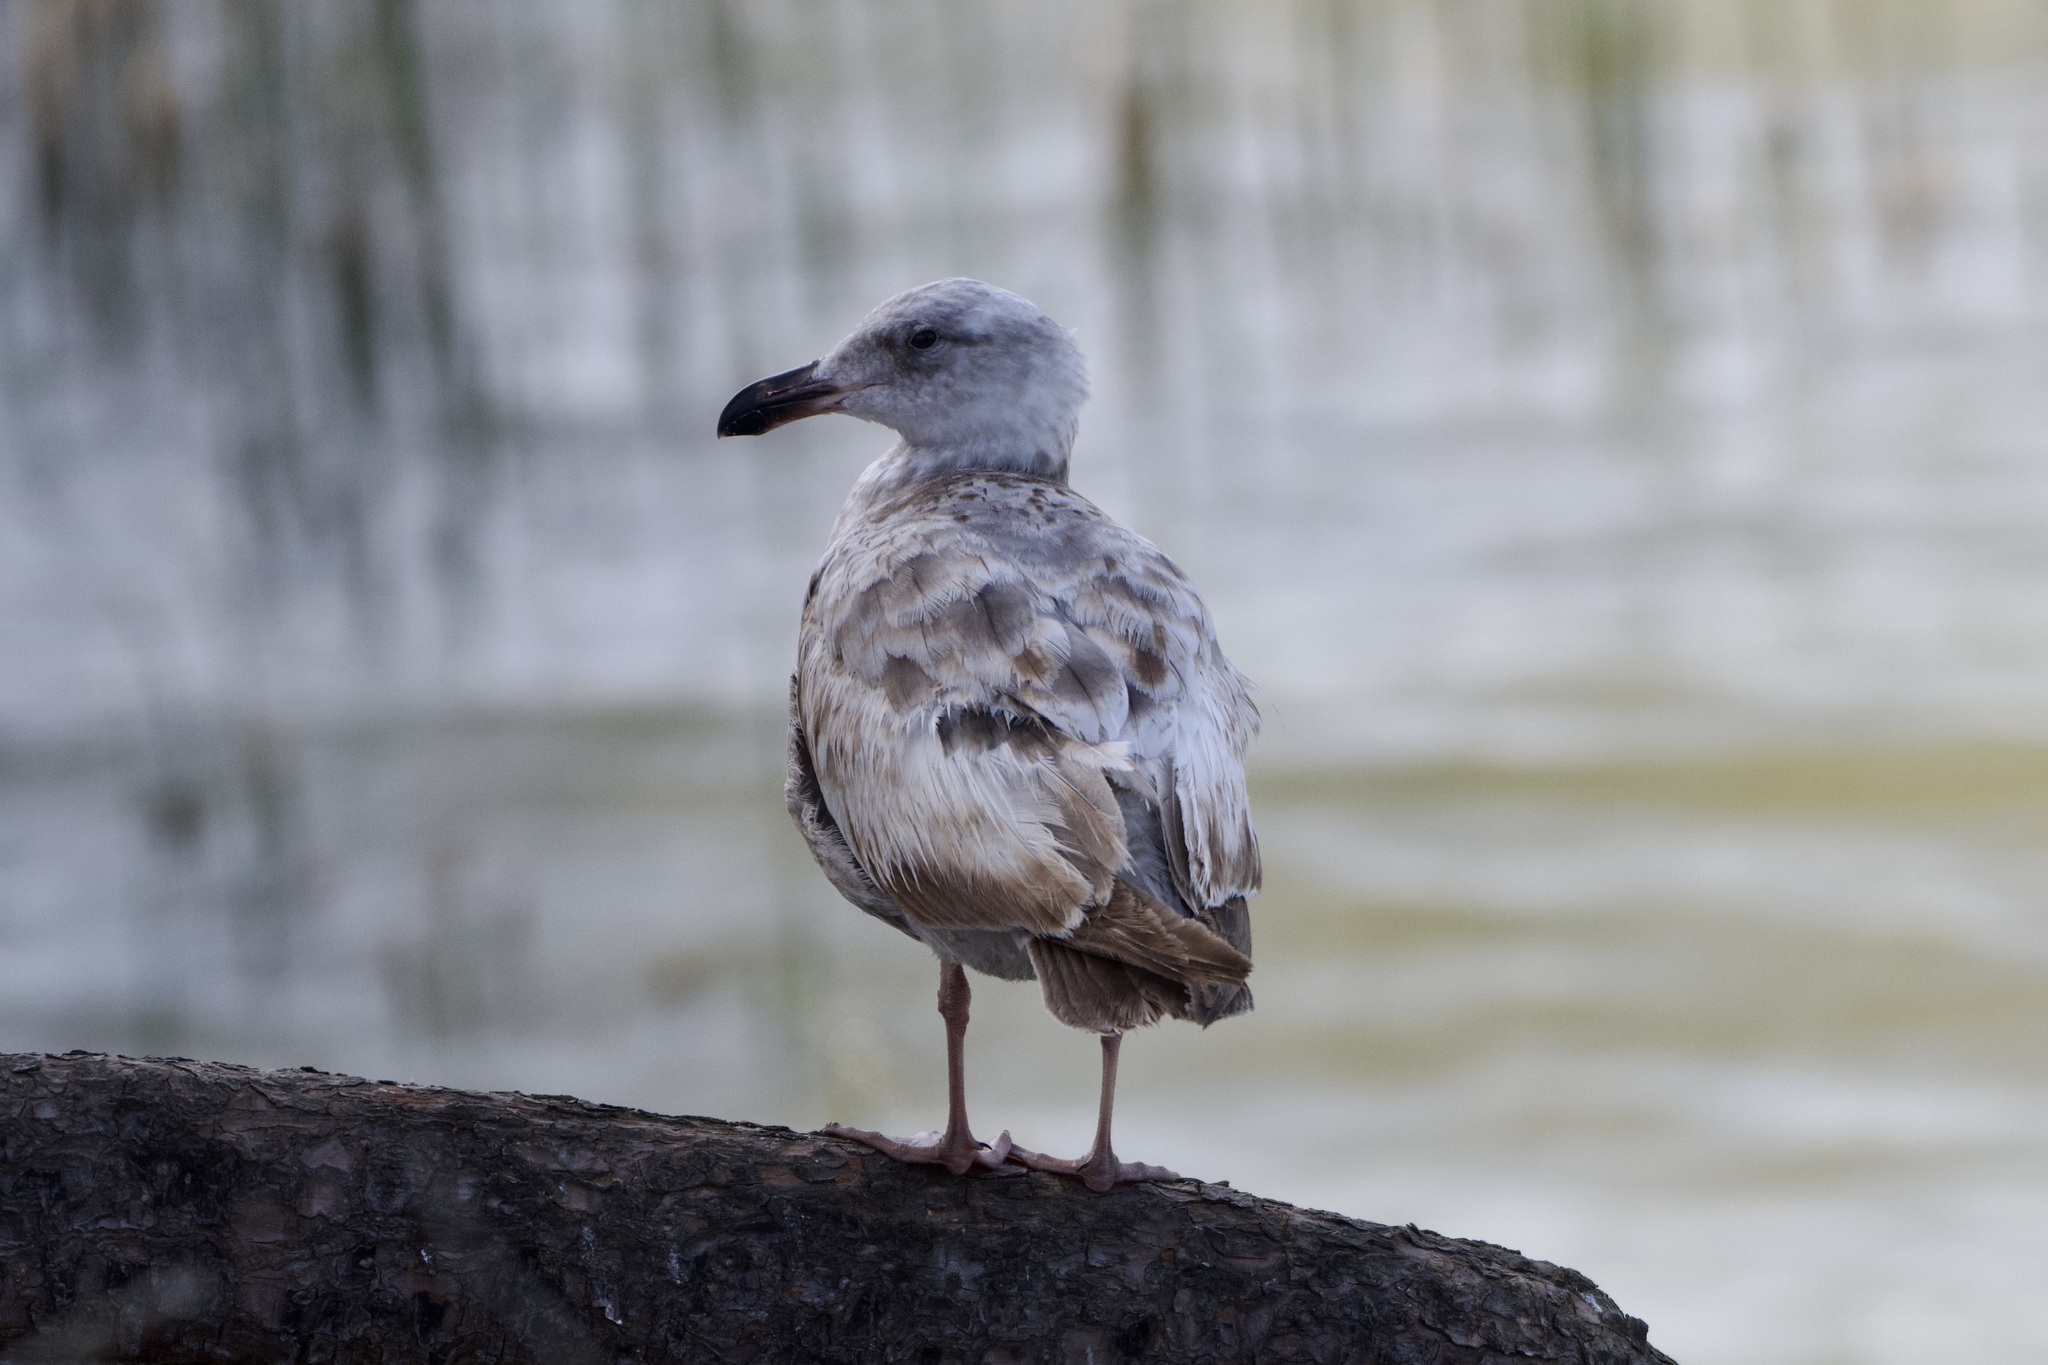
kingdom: Animalia
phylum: Chordata
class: Aves
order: Charadriiformes
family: Laridae
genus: Larus
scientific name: Larus occidentalis
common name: Western gull
